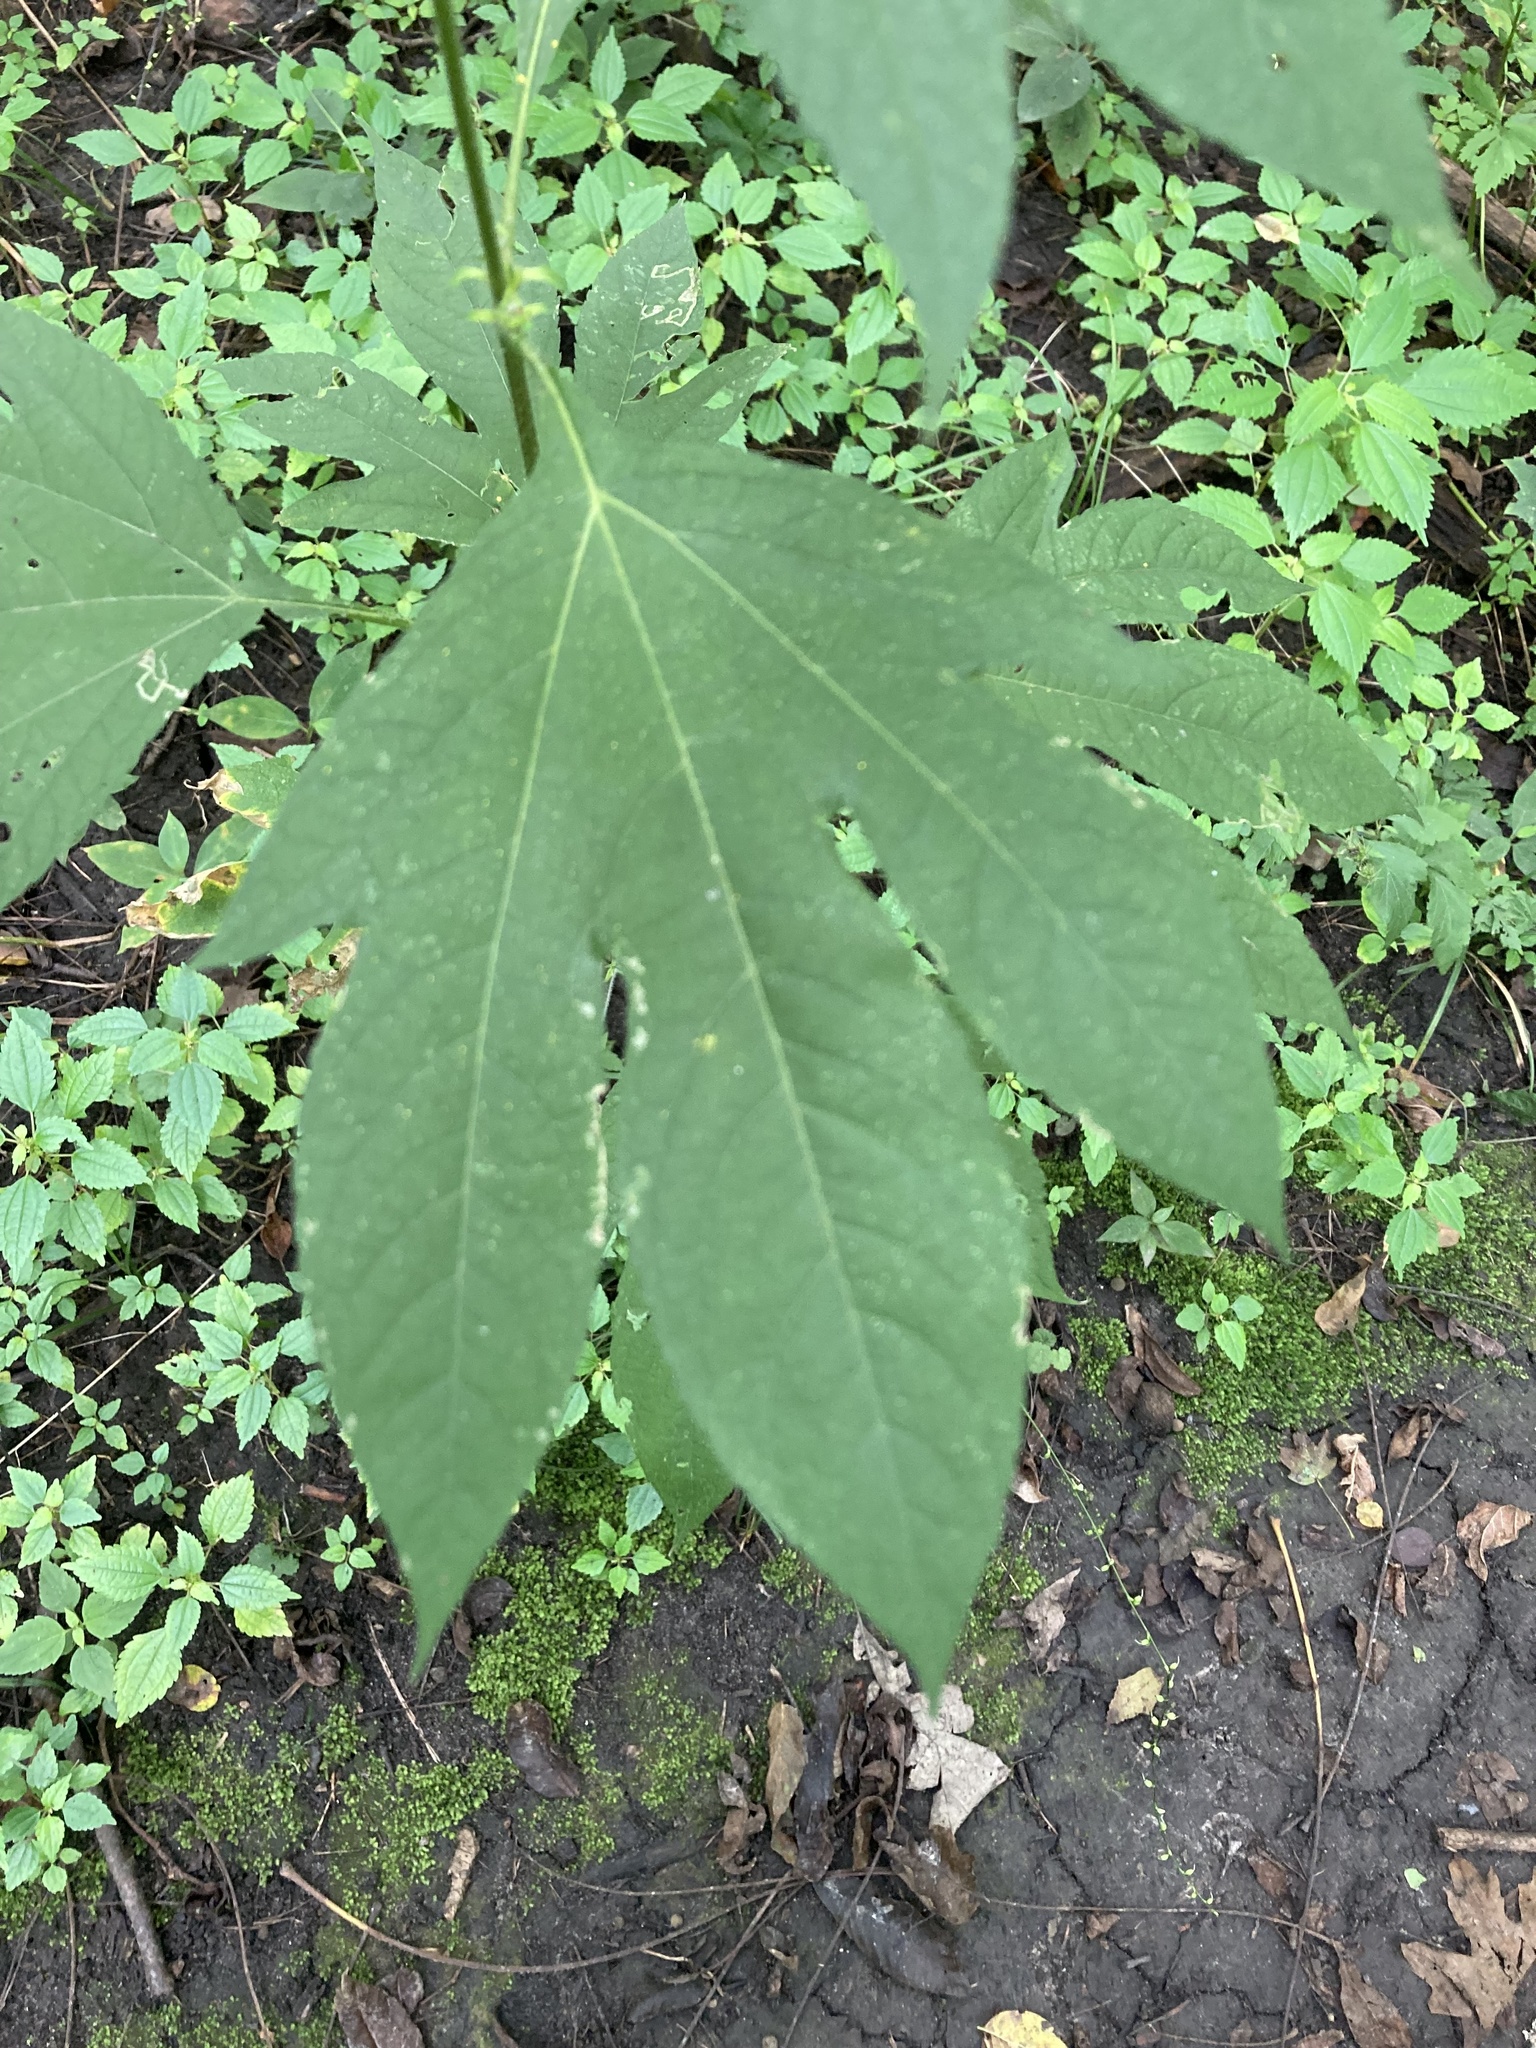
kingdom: Plantae
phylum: Tracheophyta
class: Magnoliopsida
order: Asterales
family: Asteraceae
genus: Ambrosia
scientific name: Ambrosia trifida
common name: Giant ragweed
